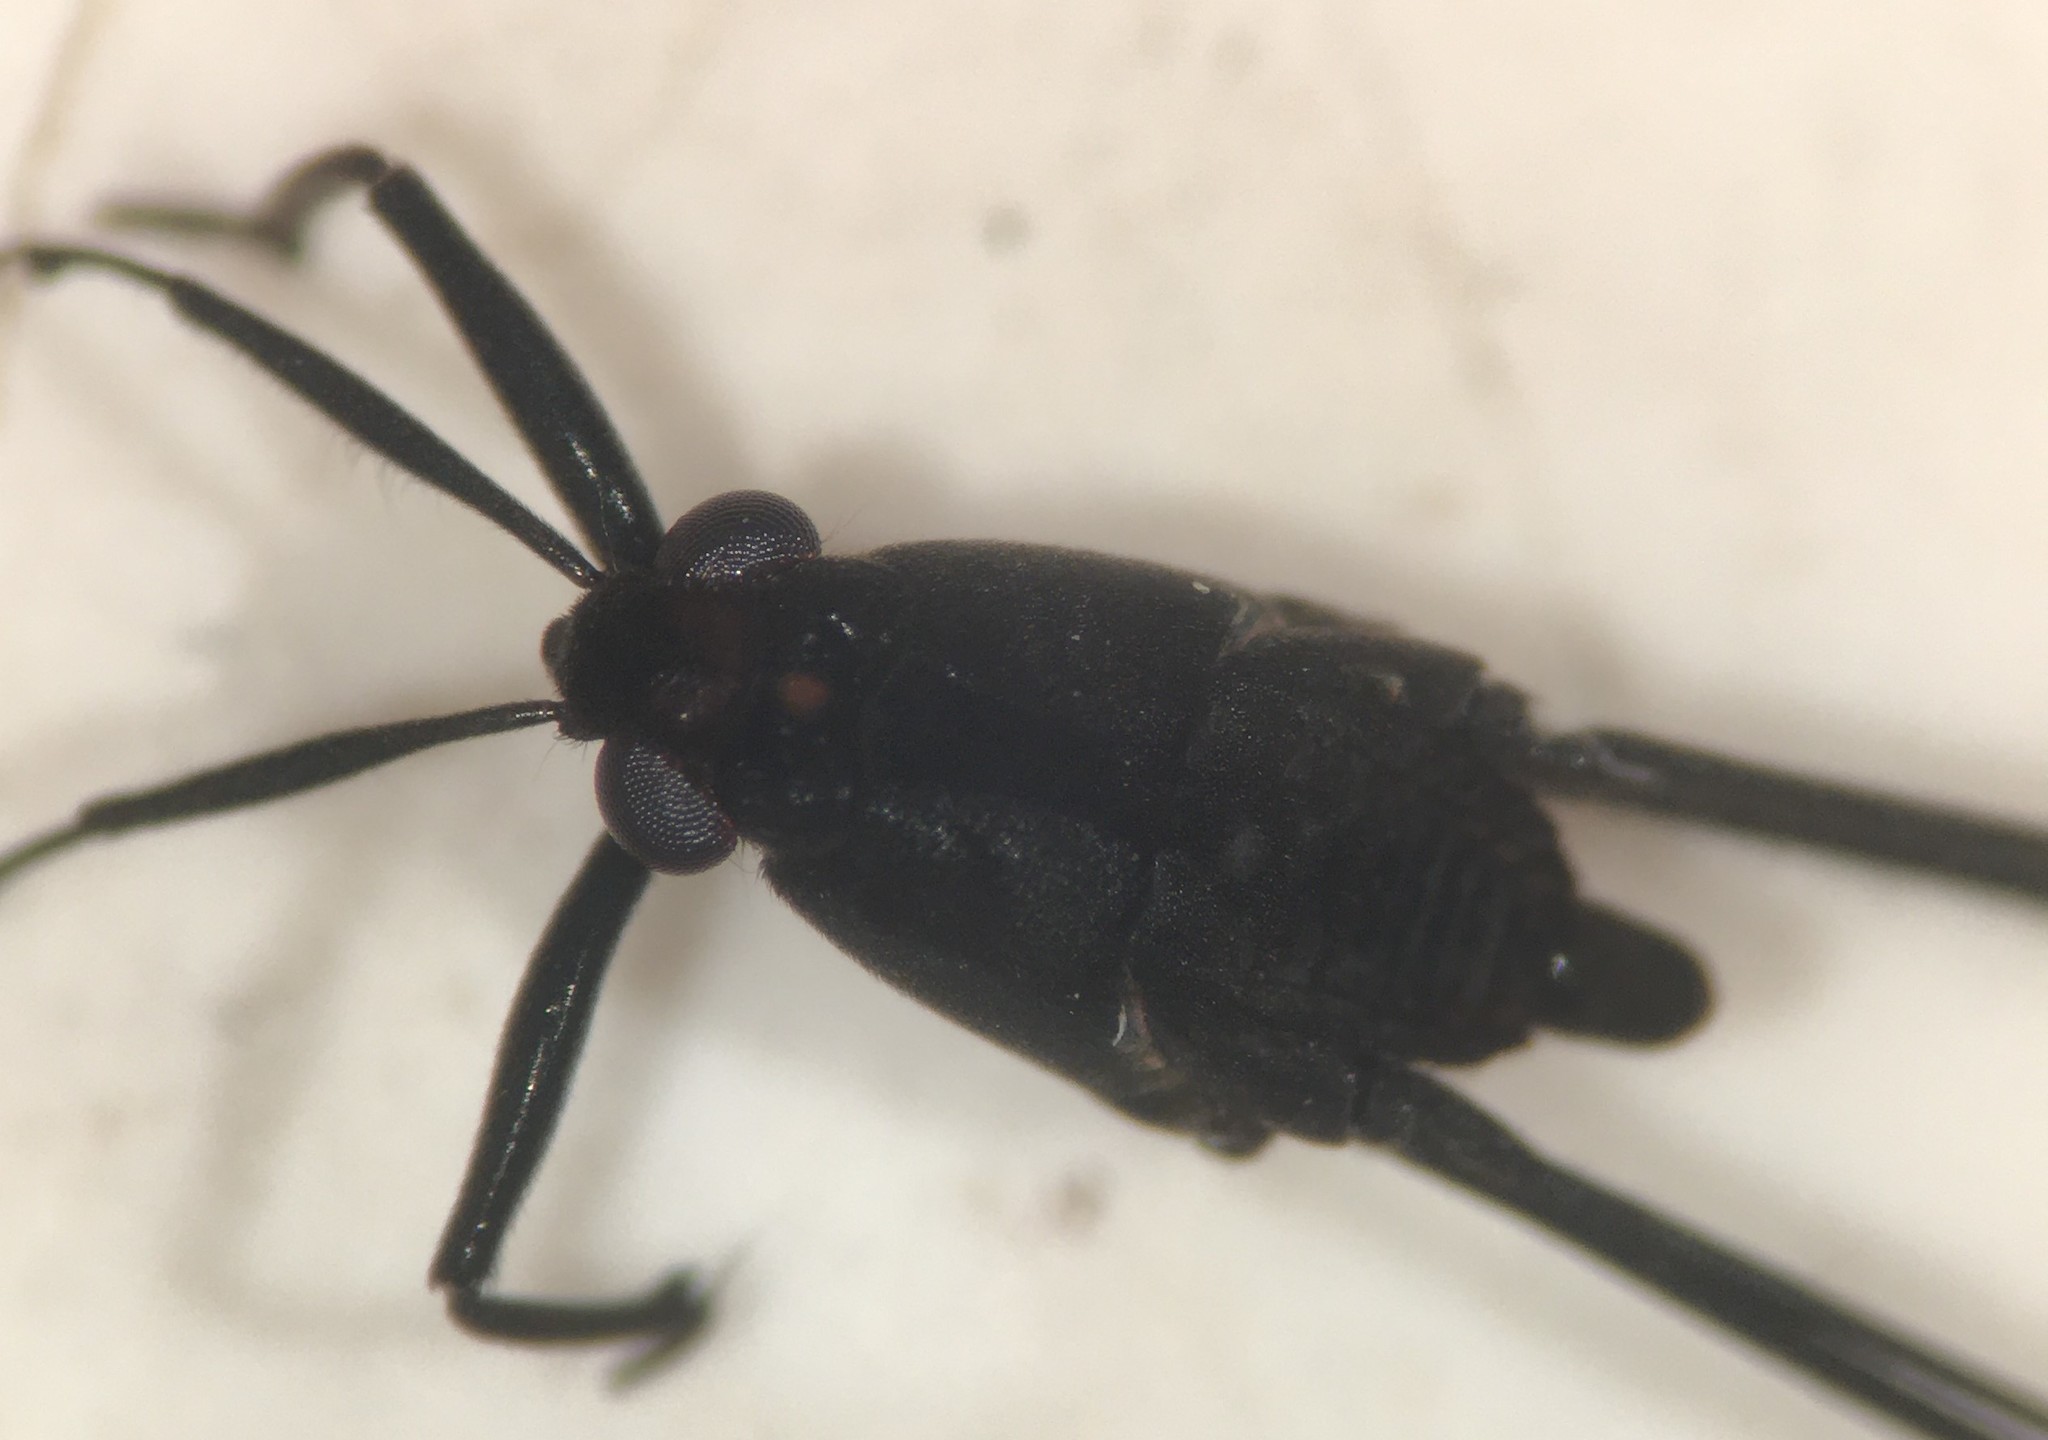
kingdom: Animalia
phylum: Arthropoda
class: Insecta
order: Hemiptera
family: Gerridae
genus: Metrobates
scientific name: Metrobates anomalus
